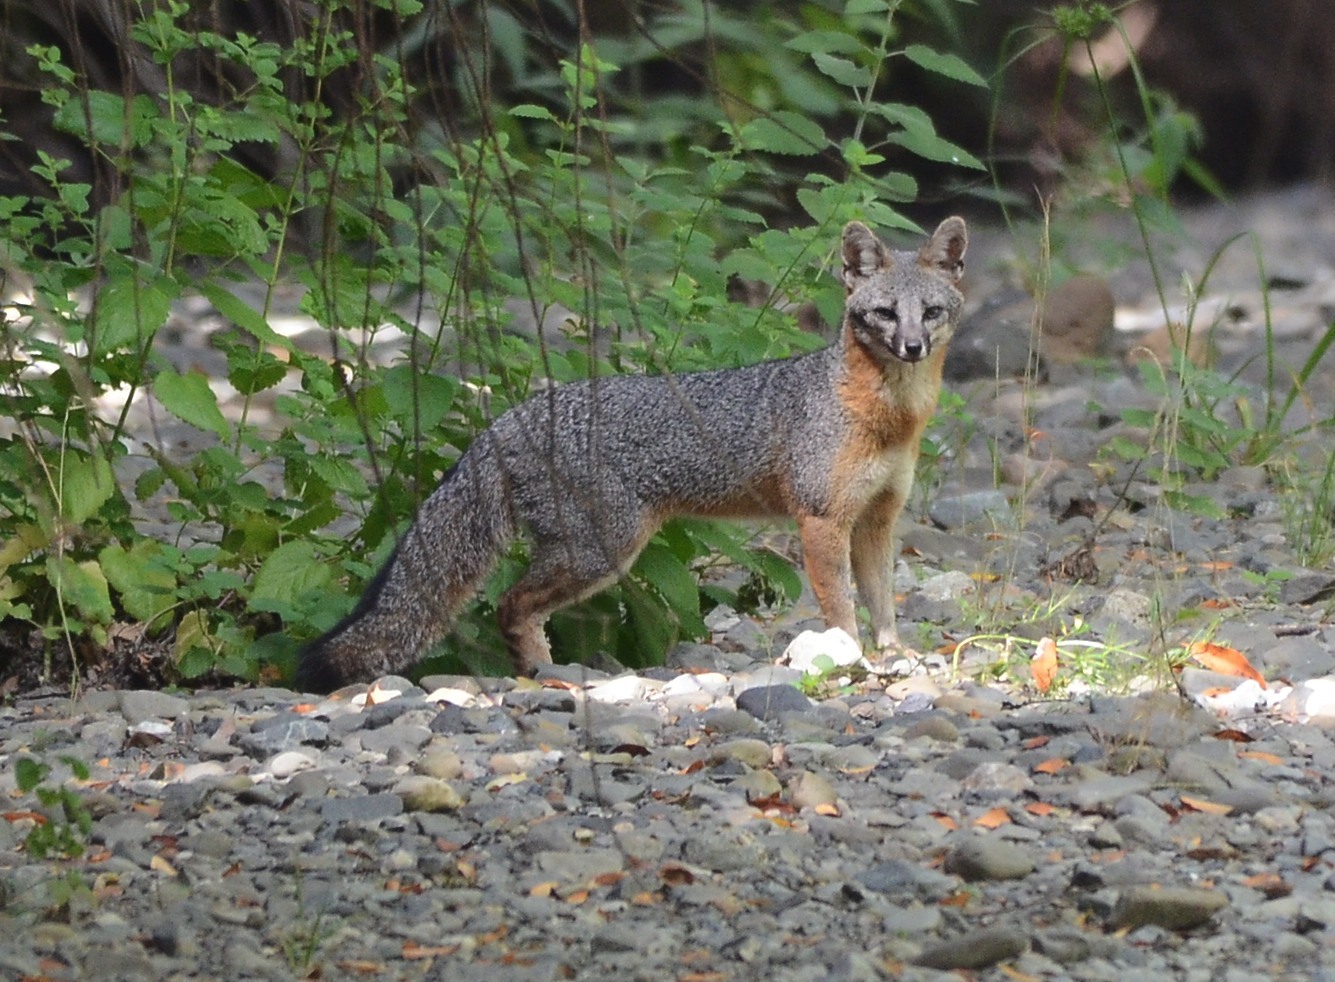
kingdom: Animalia
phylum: Chordata
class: Mammalia
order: Carnivora
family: Canidae
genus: Urocyon
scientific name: Urocyon cinereoargenteus
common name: Gray fox
